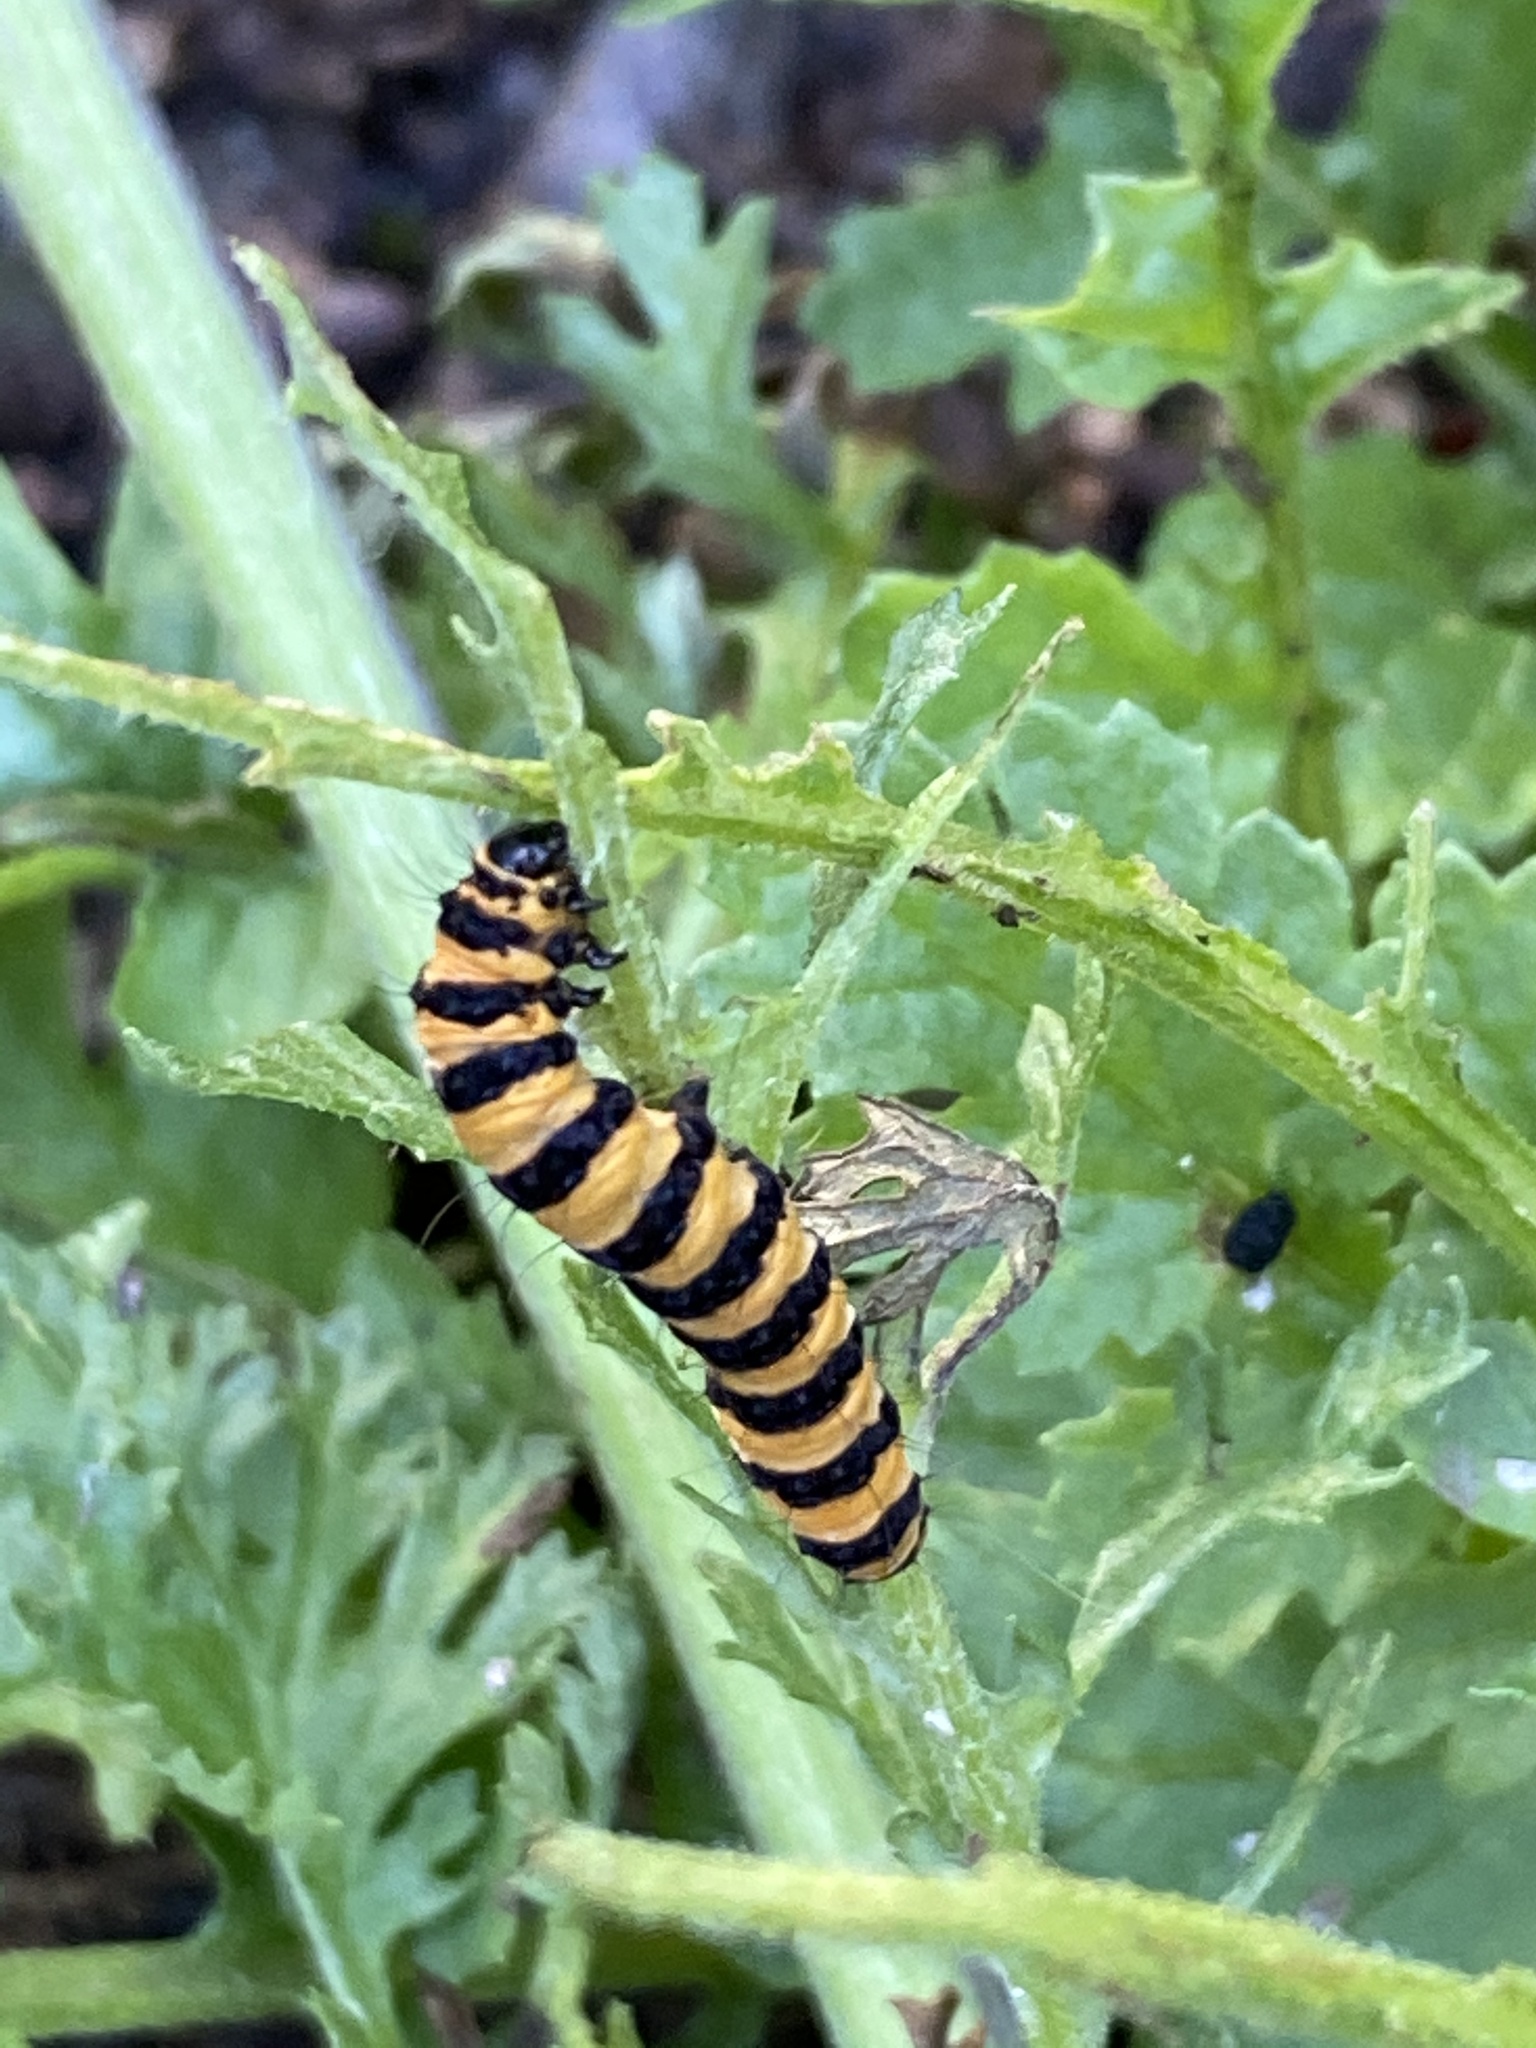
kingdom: Animalia
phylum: Arthropoda
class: Insecta
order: Lepidoptera
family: Erebidae
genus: Tyria
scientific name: Tyria jacobaeae
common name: Cinnabar
